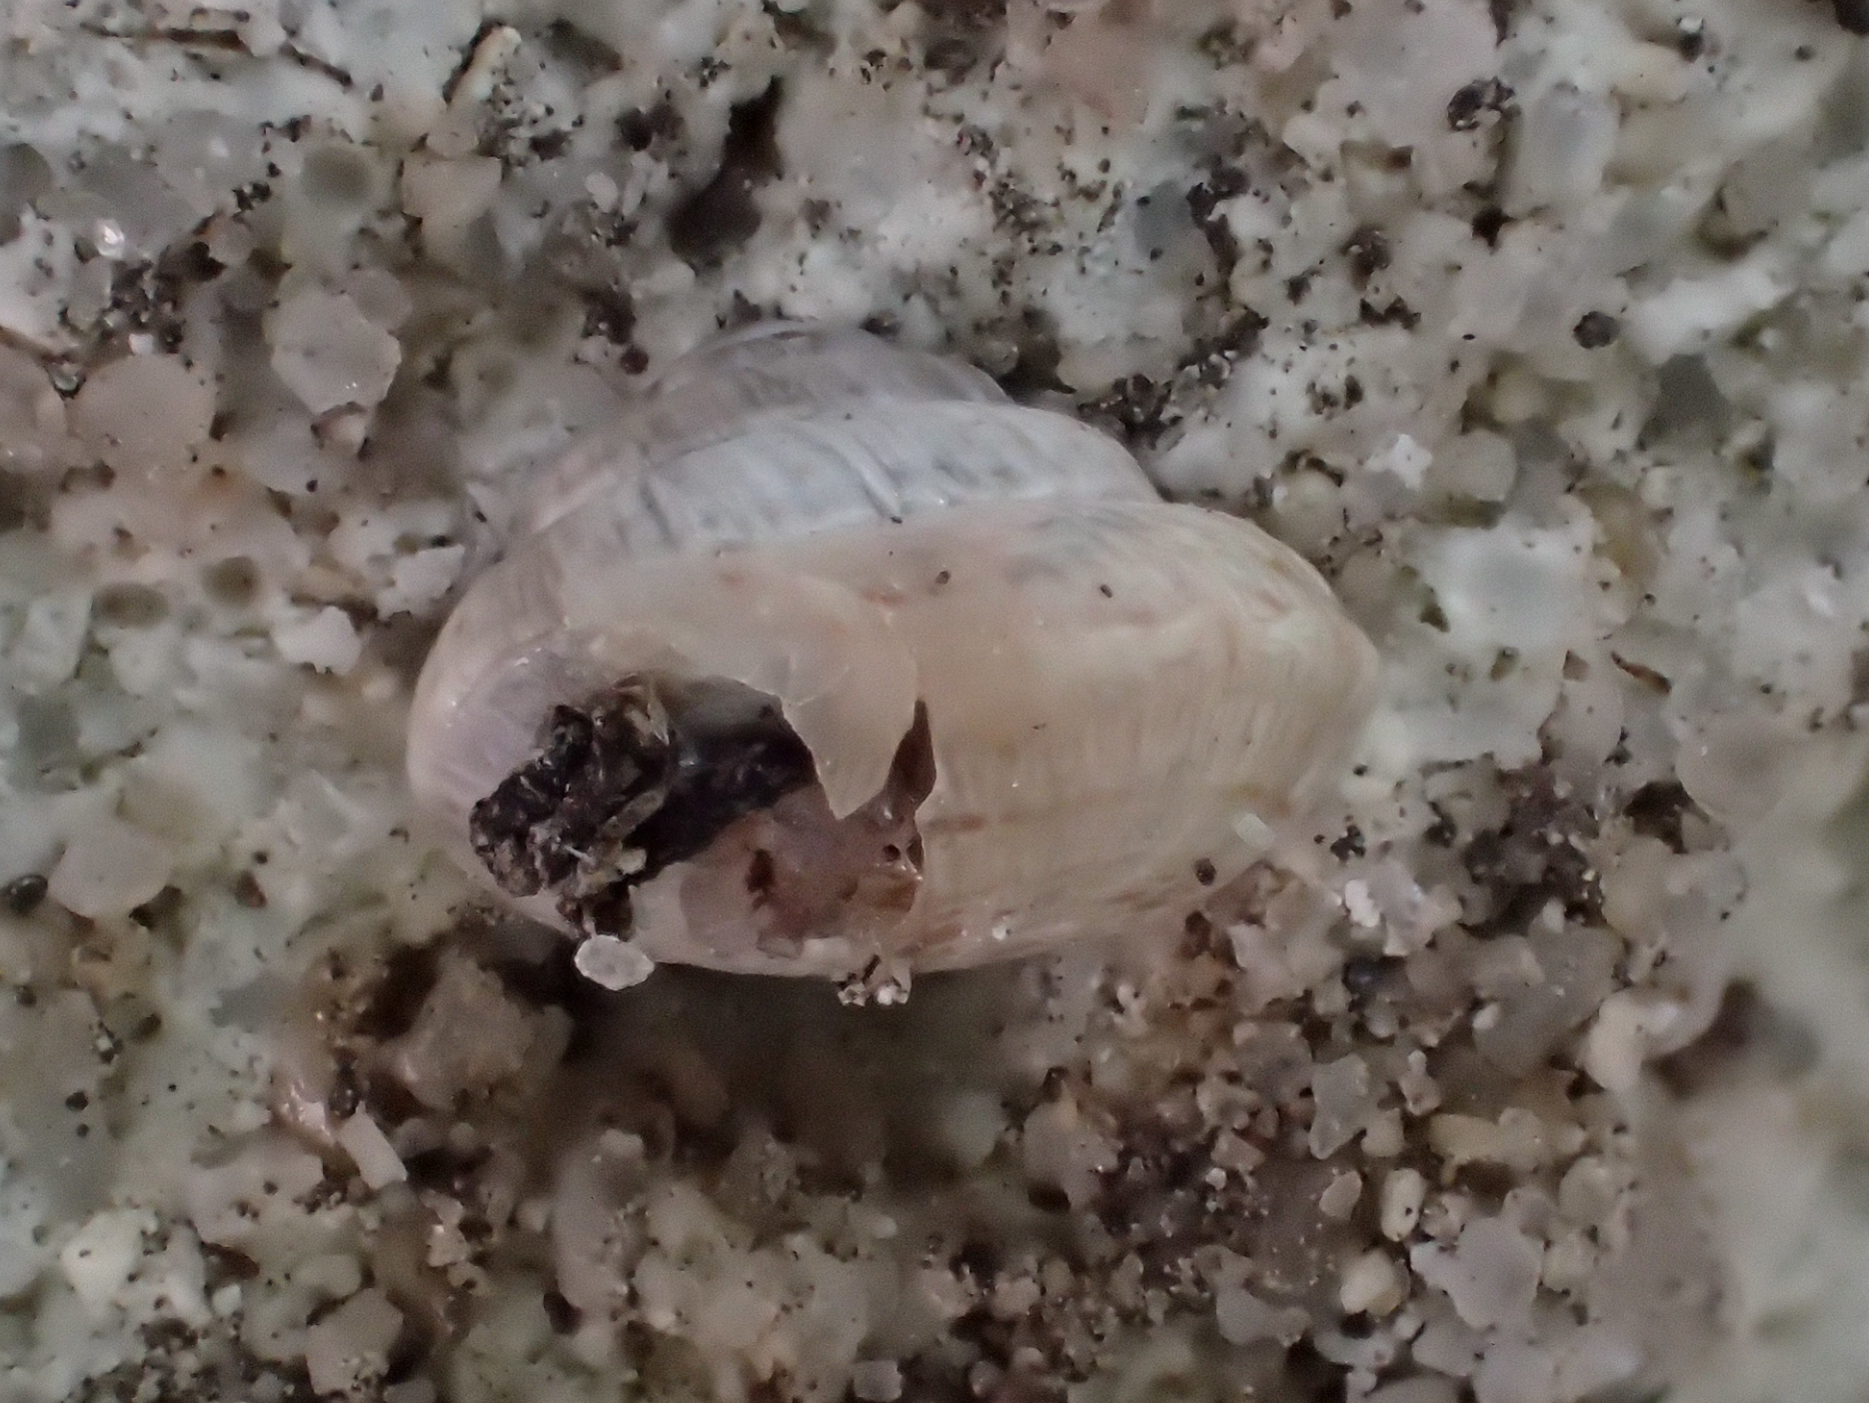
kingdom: Animalia
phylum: Mollusca
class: Gastropoda
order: Stylommatophora
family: Geomitridae
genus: Trochoidea
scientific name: Trochoidea trochoides
